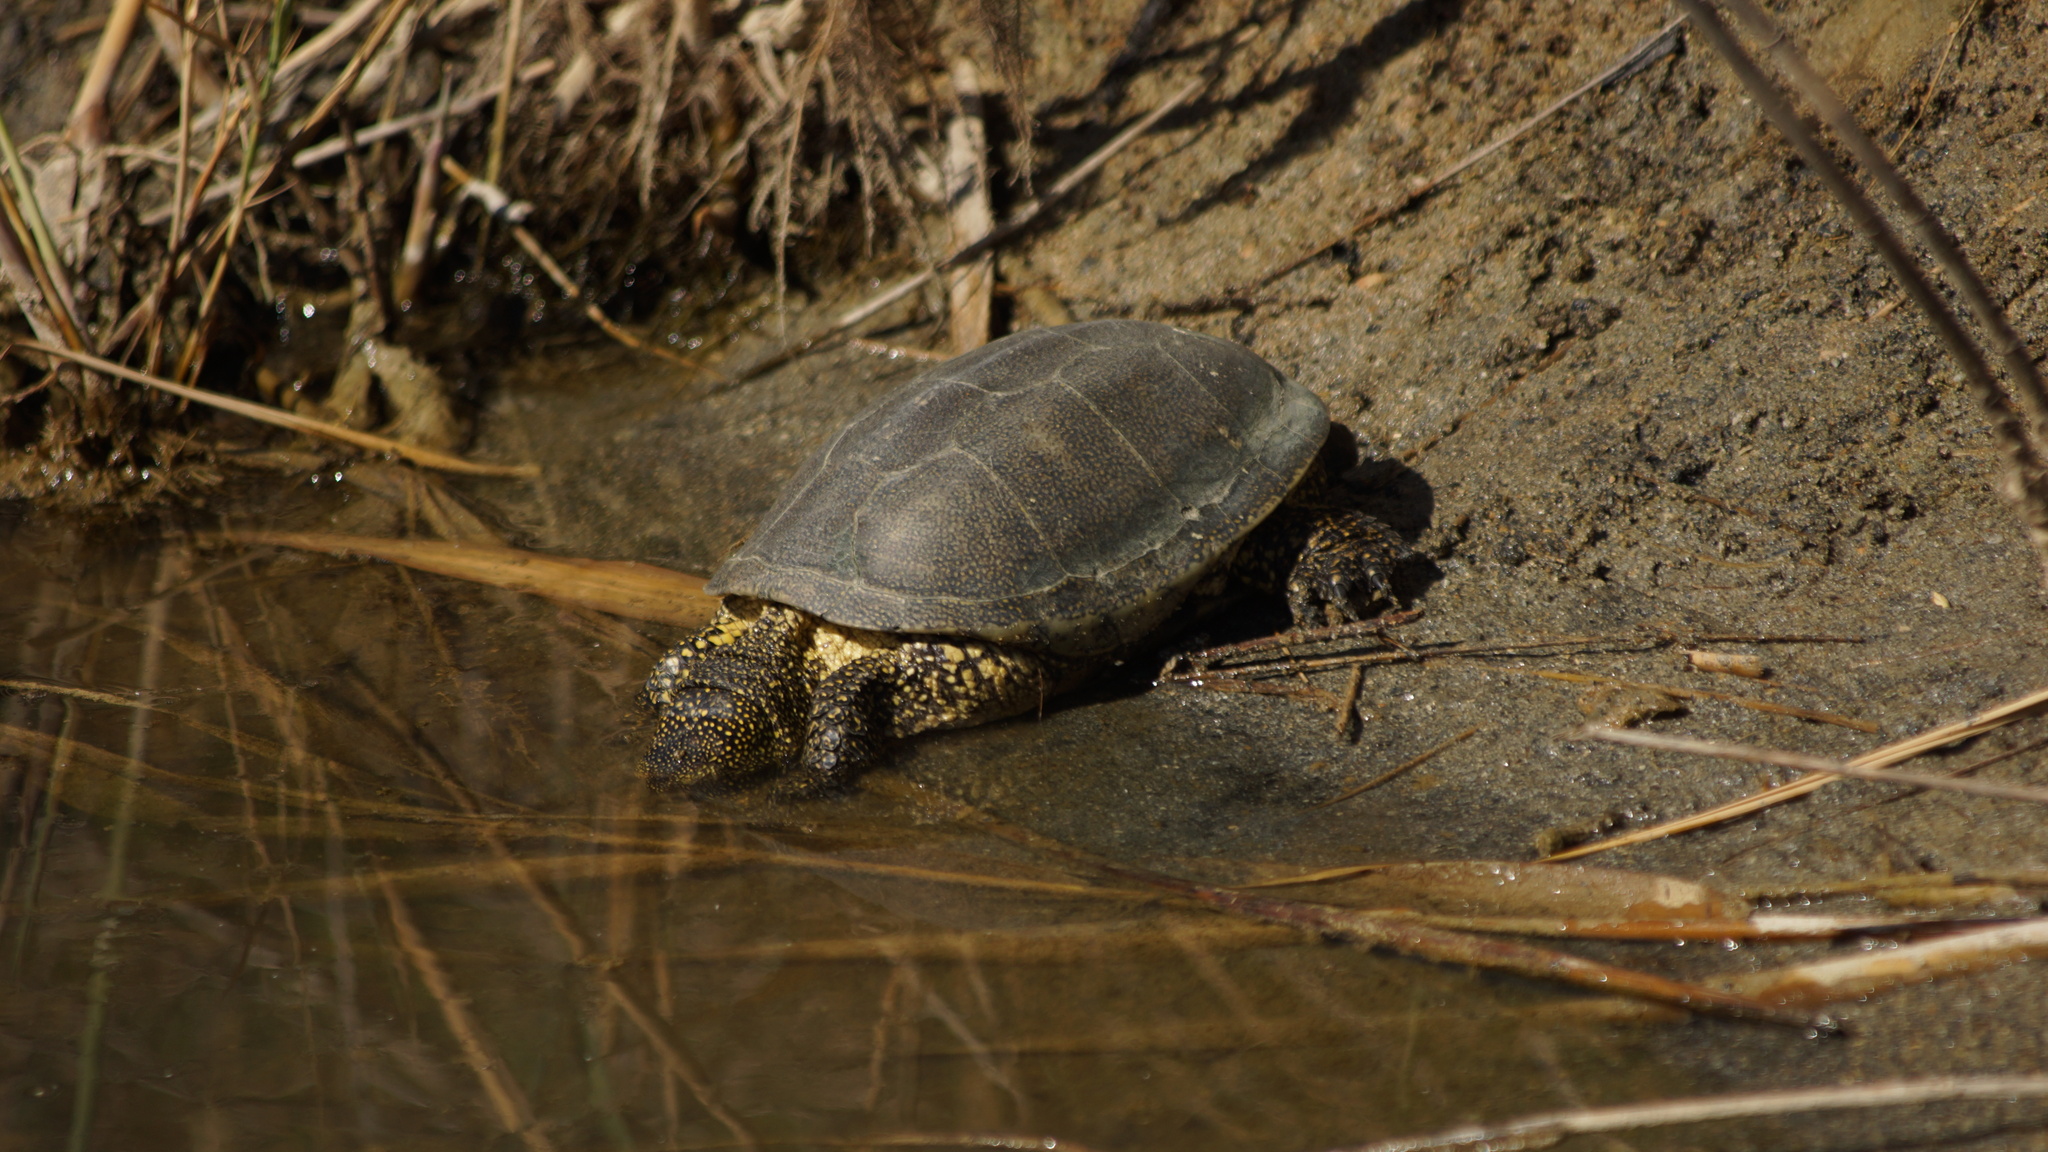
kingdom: Animalia
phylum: Chordata
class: Testudines
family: Emydidae
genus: Emys
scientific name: Emys orbicularis
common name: European pond turtle
